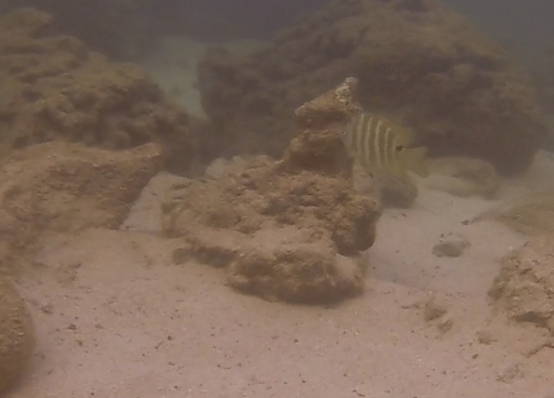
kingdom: Animalia
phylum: Chordata
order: Perciformes
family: Pomacentridae
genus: Abudefduf
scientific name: Abudefduf sordidus
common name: Blackspot sergeant
